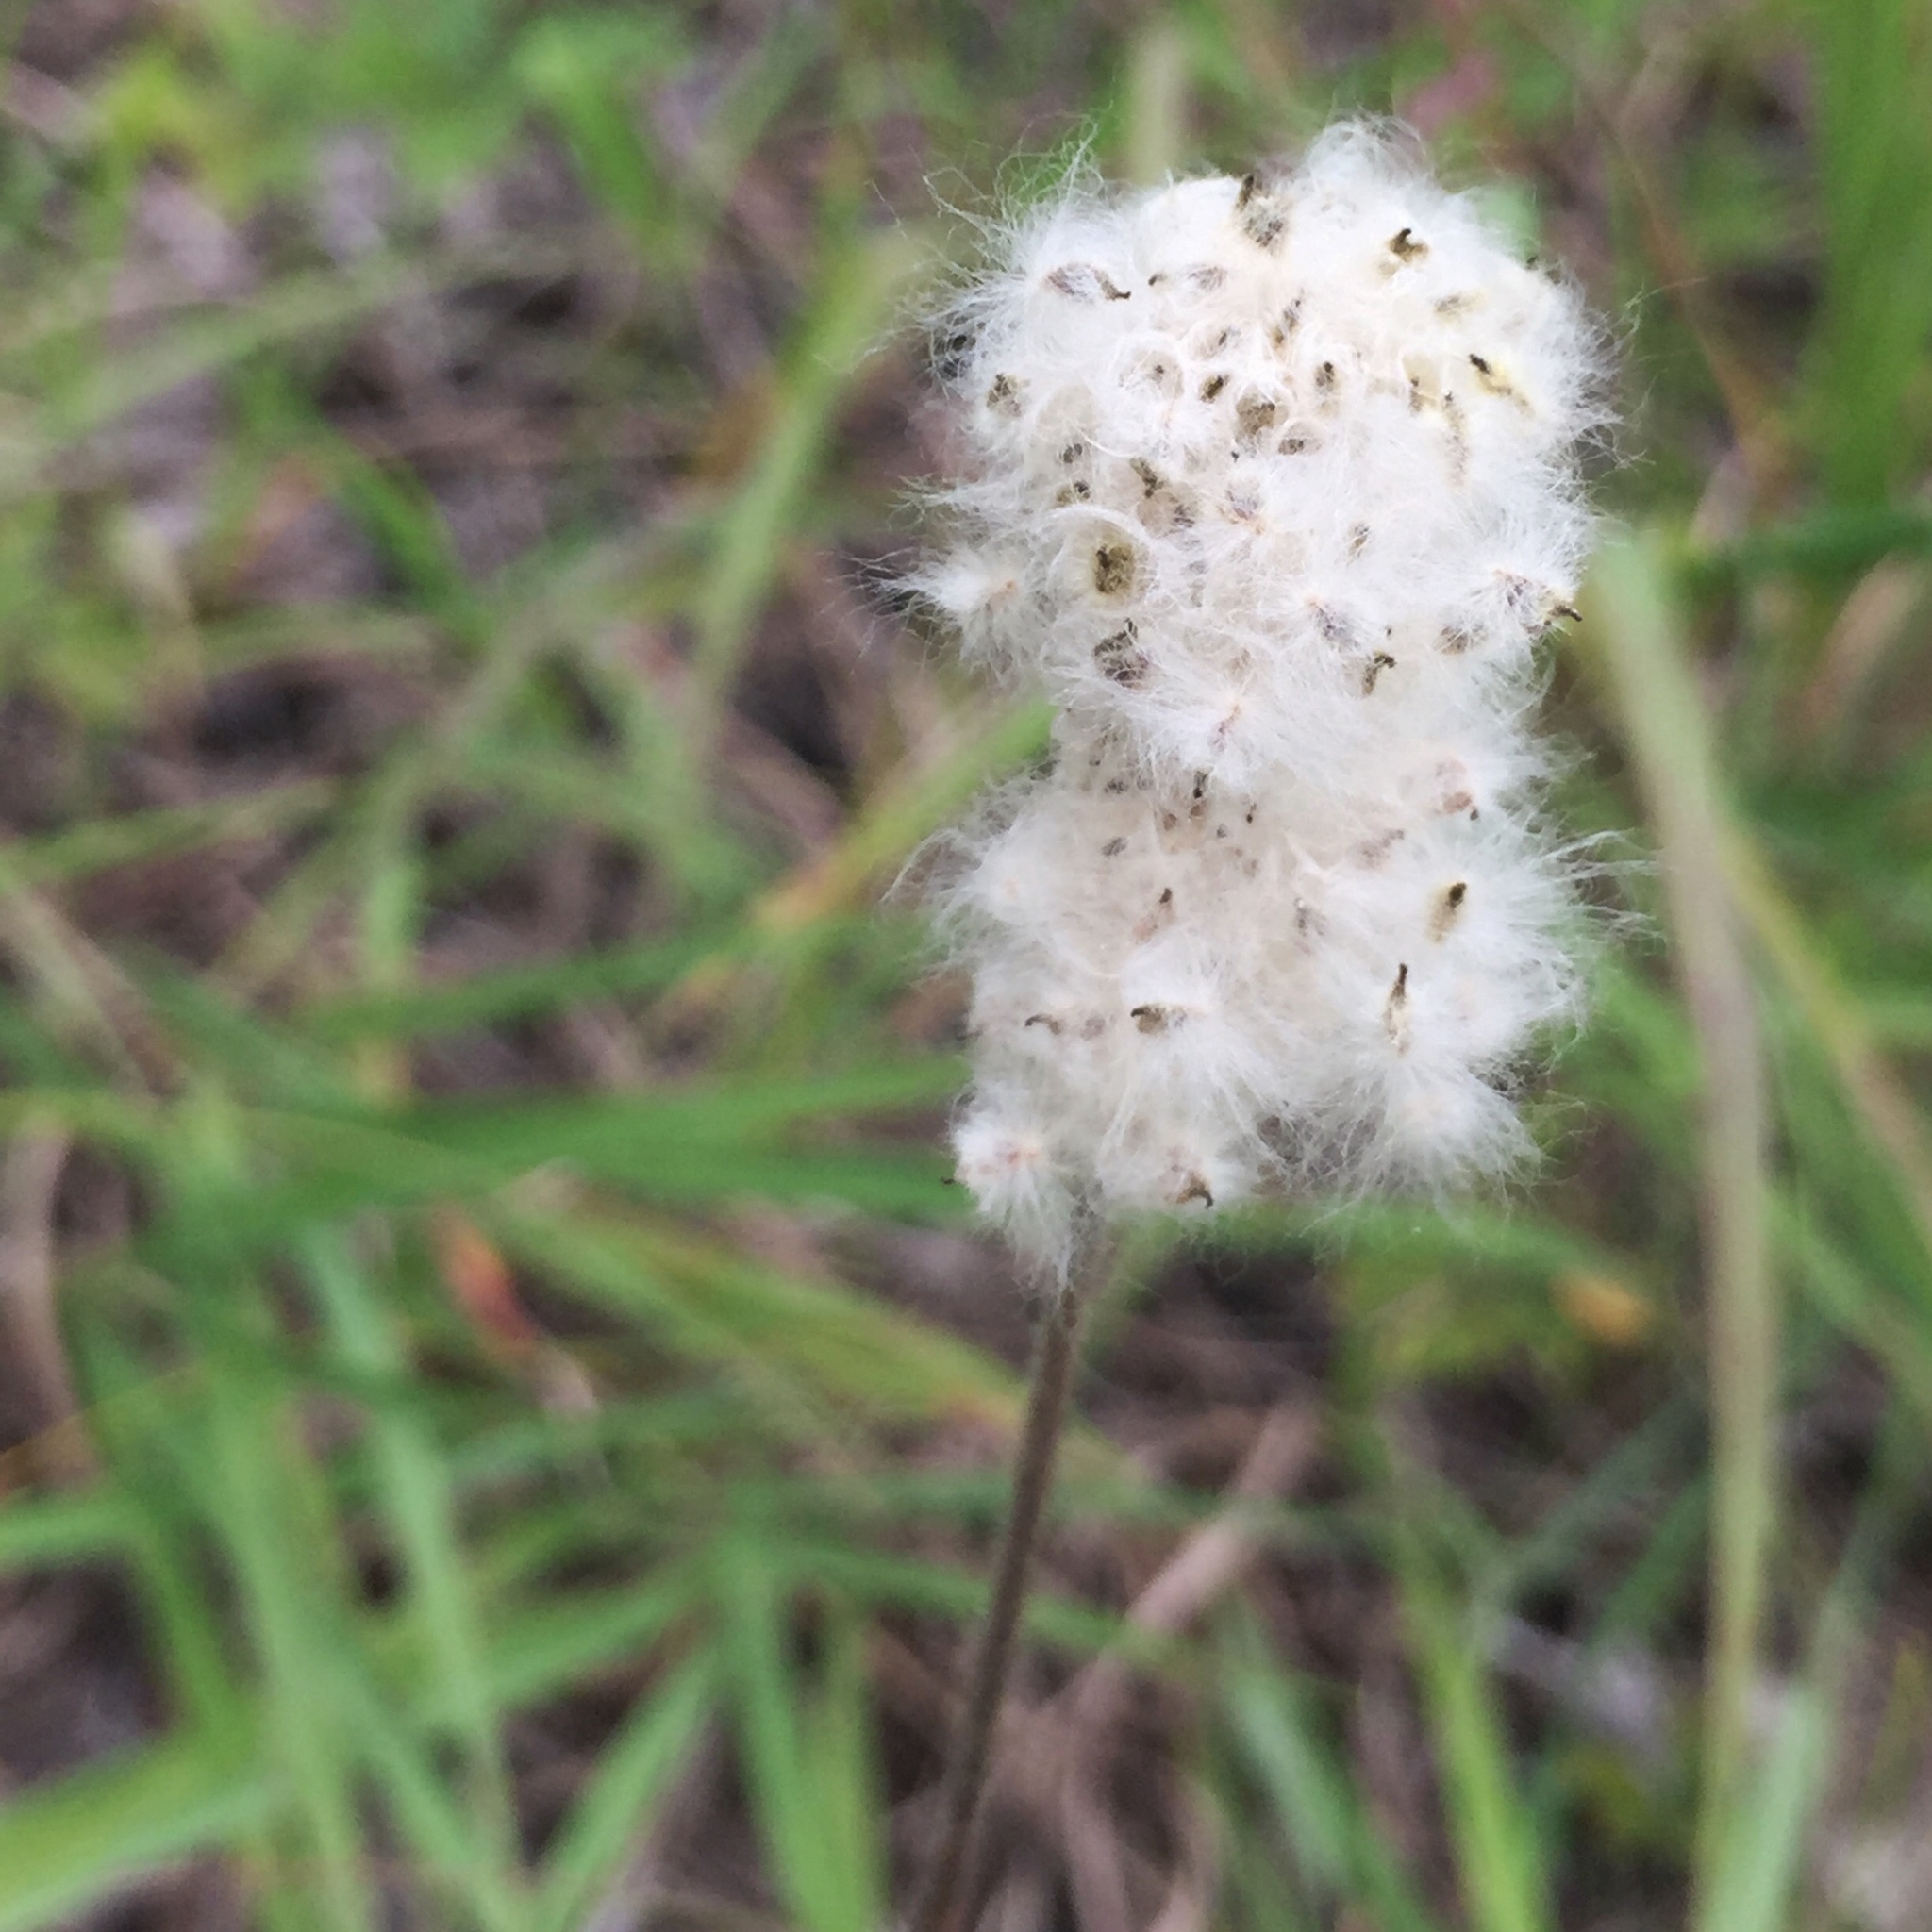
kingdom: Plantae
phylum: Tracheophyta
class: Magnoliopsida
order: Ranunculales
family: Ranunculaceae
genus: Anemone
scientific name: Anemone cylindrica
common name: Candle anemone
